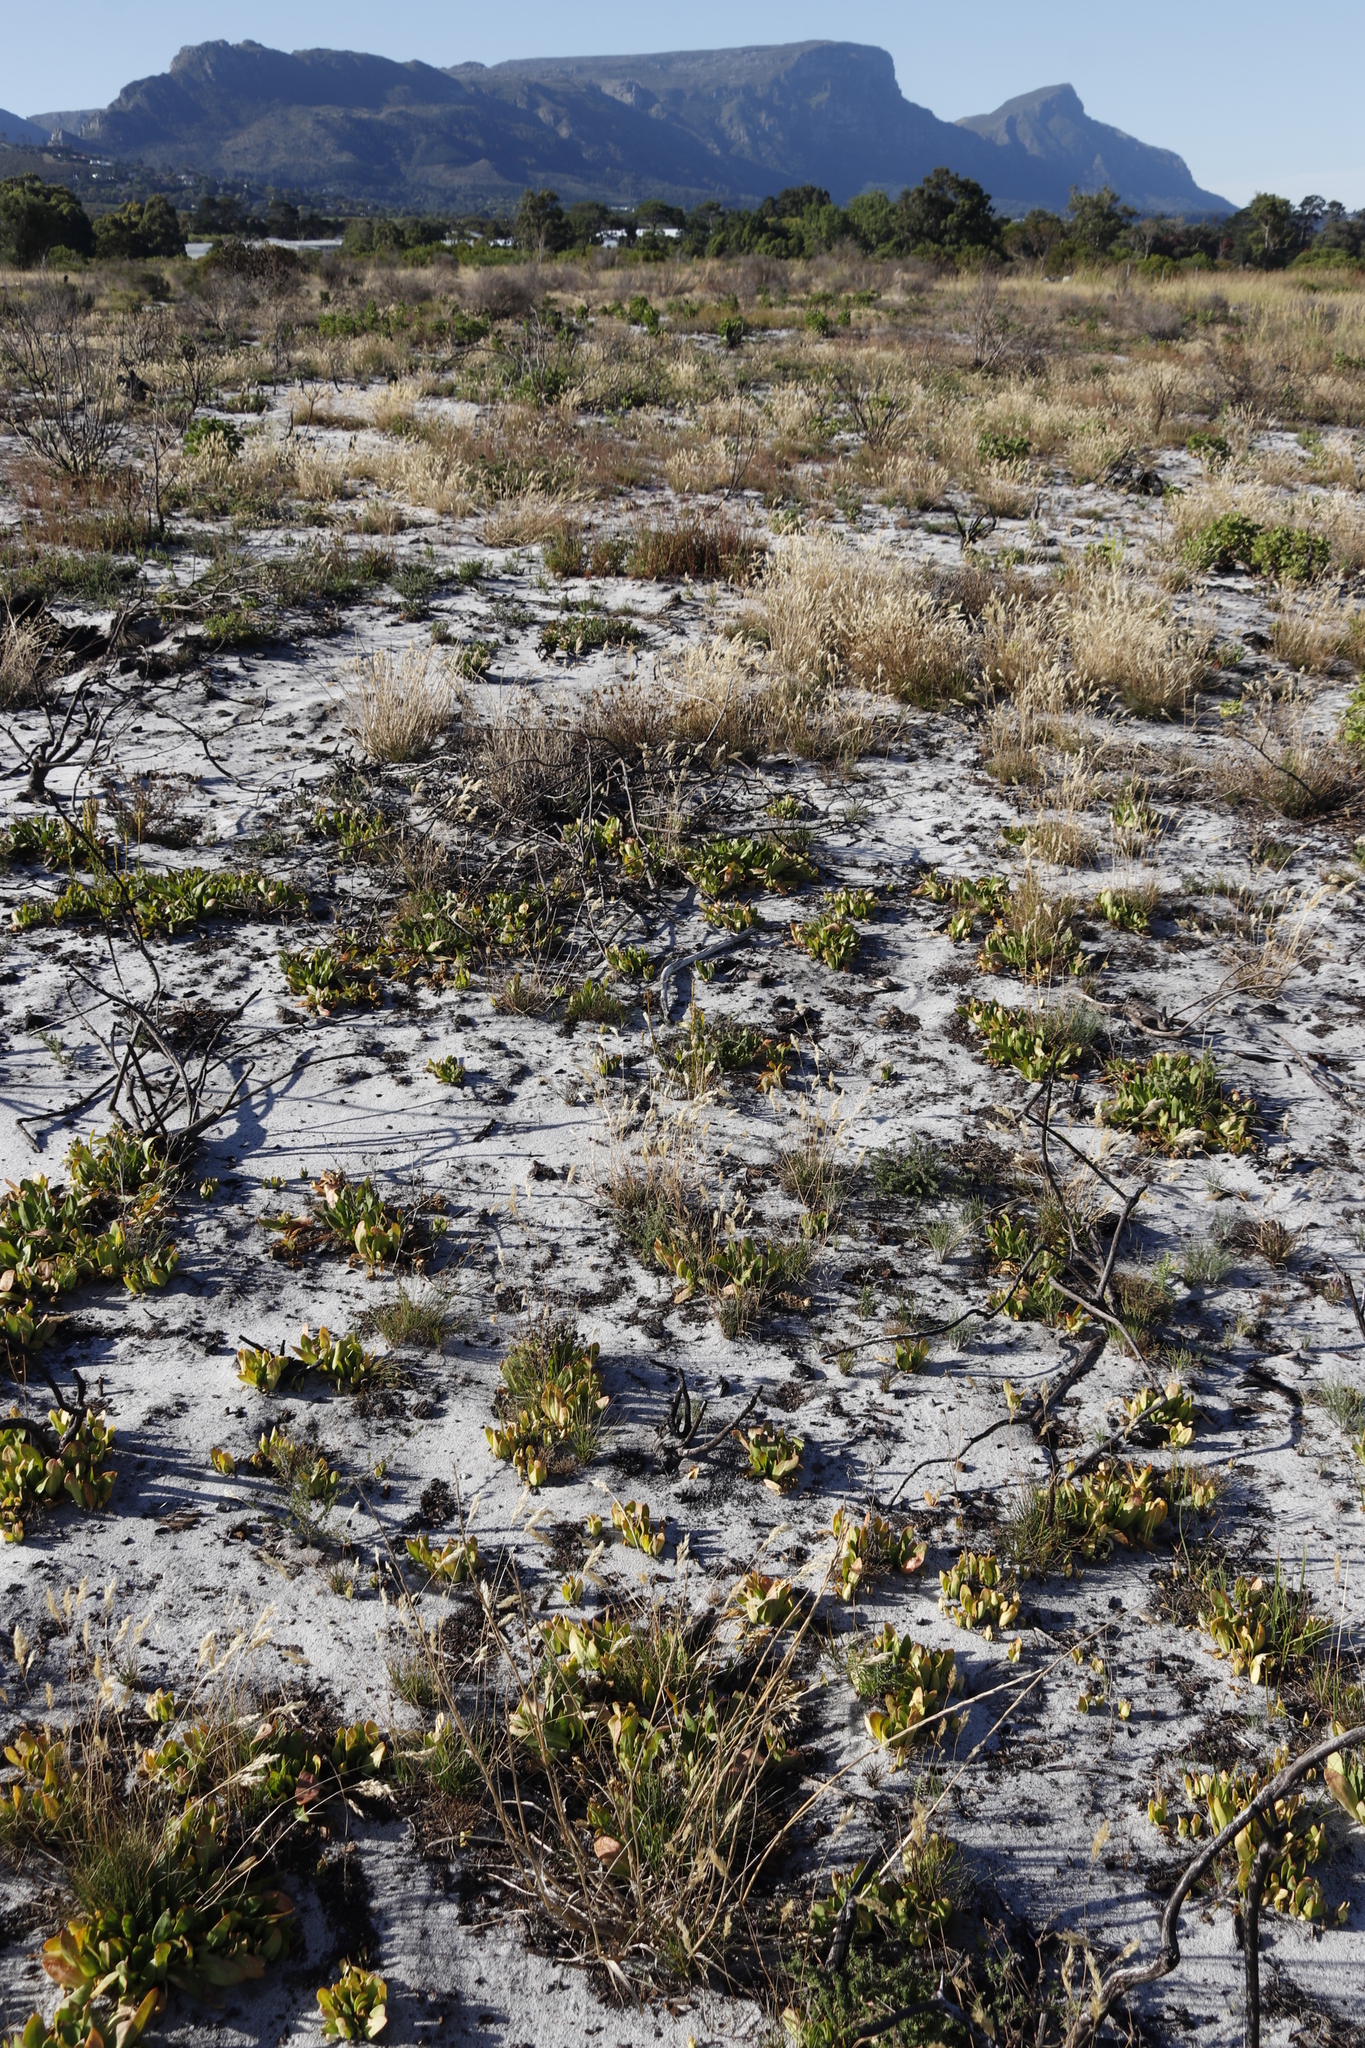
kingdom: Plantae
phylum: Tracheophyta
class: Magnoliopsida
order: Caryophyllales
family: Aizoaceae
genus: Skiatophytum
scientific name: Skiatophytum tripolium
